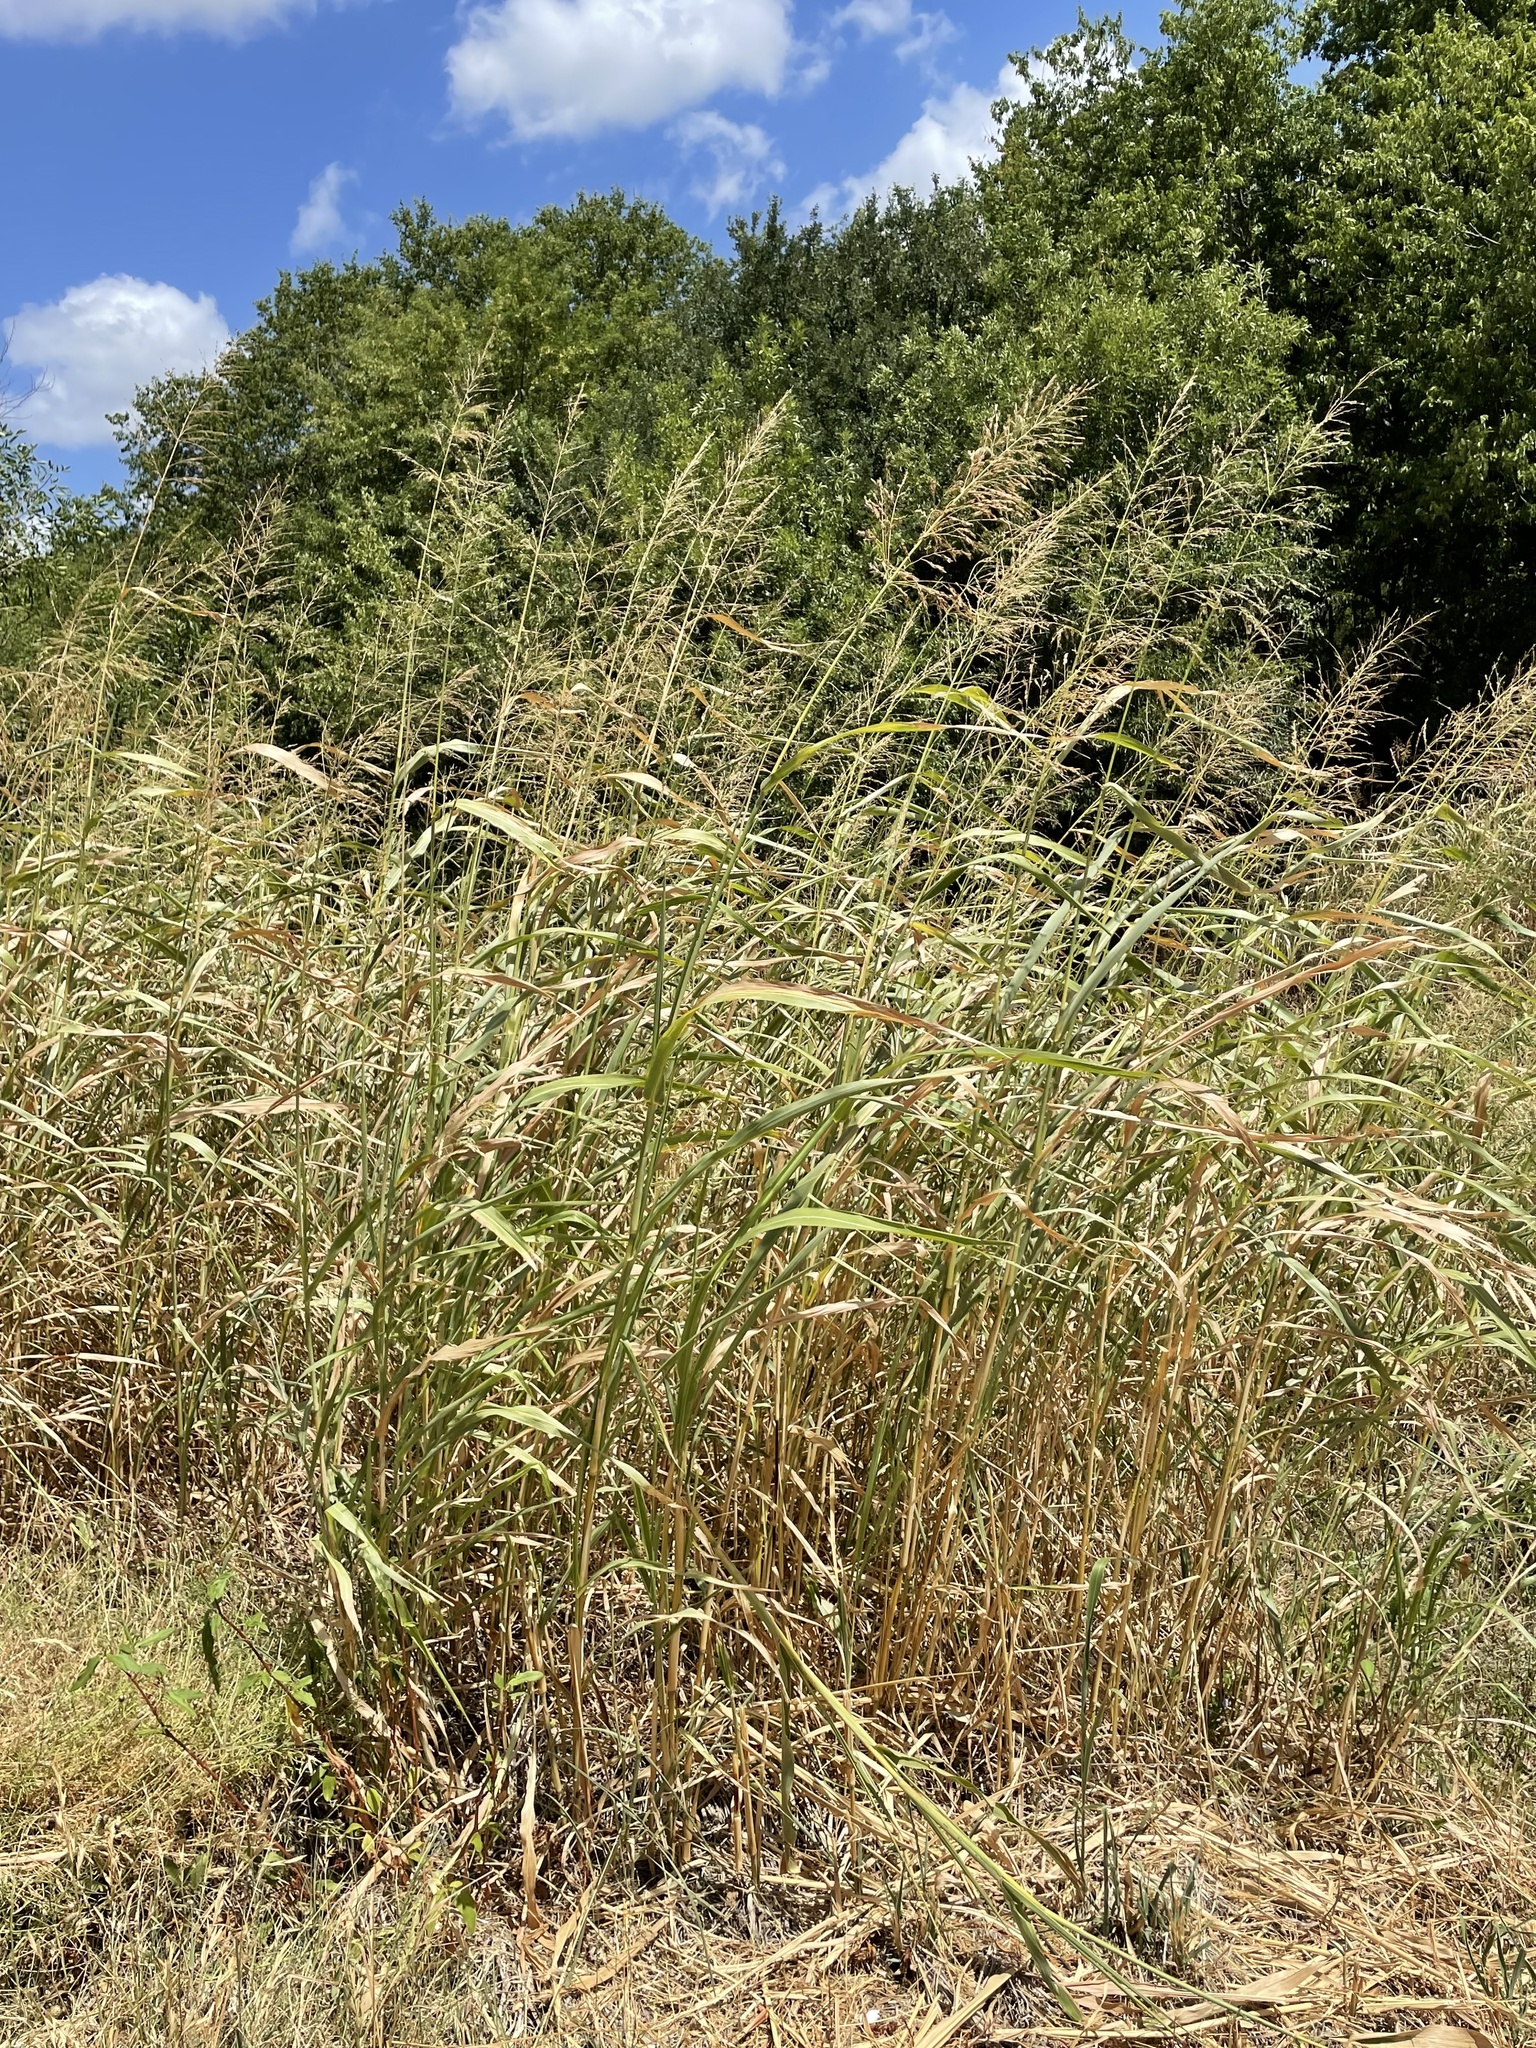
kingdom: Plantae
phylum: Tracheophyta
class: Liliopsida
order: Poales
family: Poaceae
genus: Sorghum
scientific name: Sorghum halepense
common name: Johnson-grass
